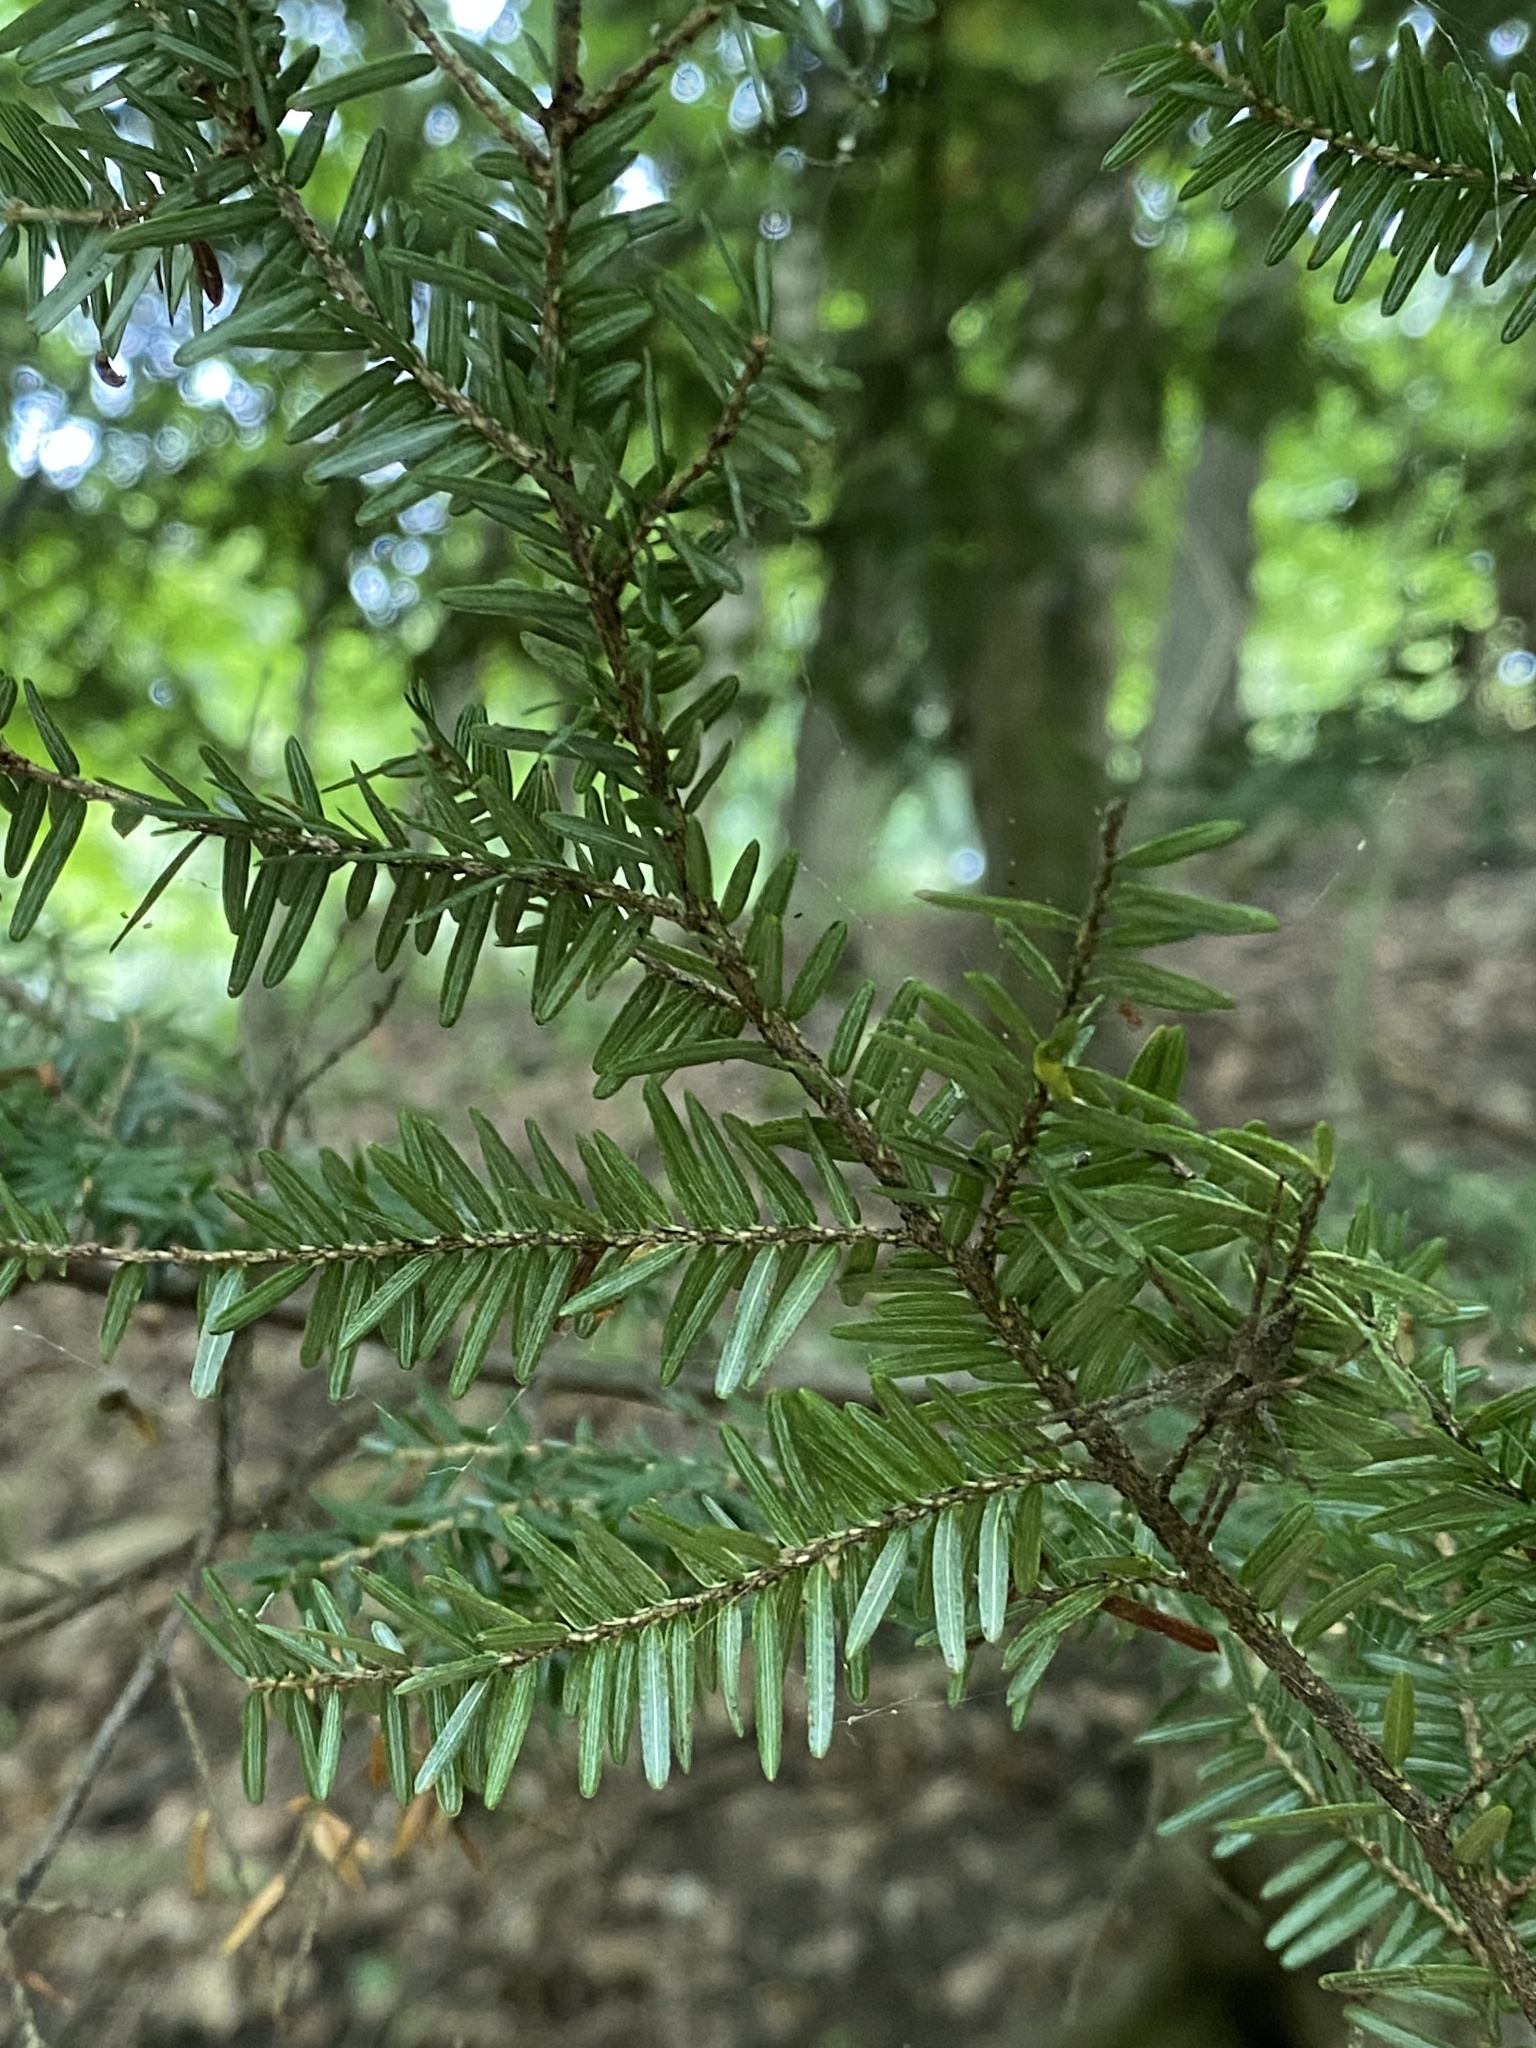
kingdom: Plantae
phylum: Tracheophyta
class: Pinopsida
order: Pinales
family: Pinaceae
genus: Tsuga
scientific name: Tsuga canadensis
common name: Eastern hemlock
